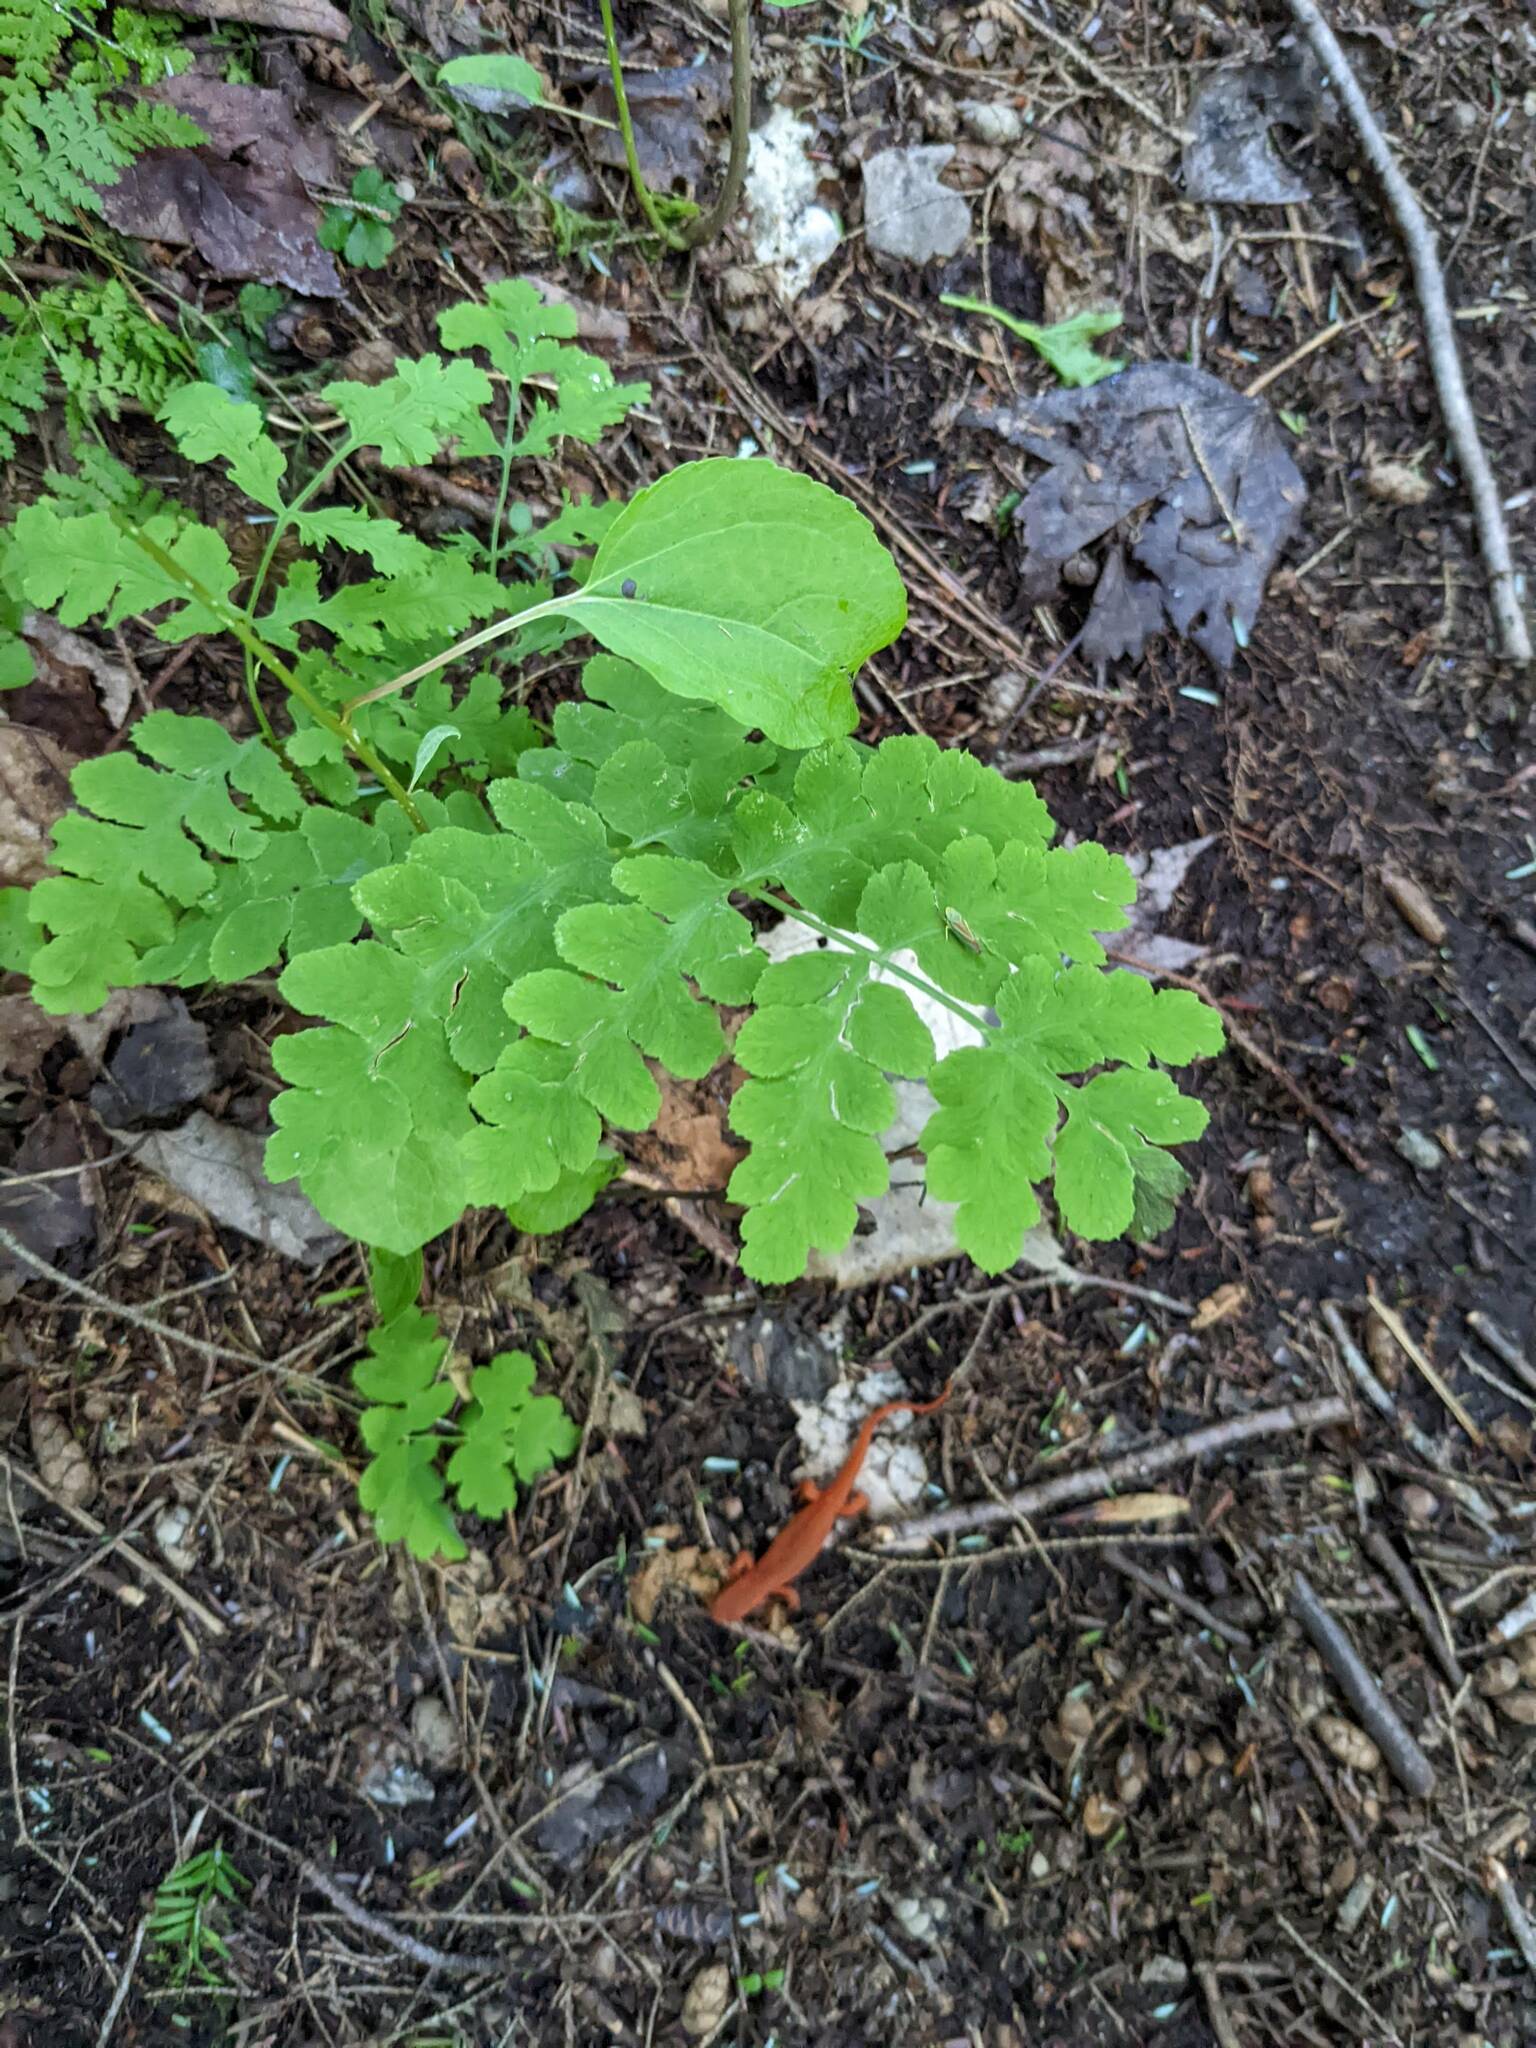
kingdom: Plantae
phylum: Tracheophyta
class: Polypodiopsida
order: Osmundales
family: Osmundaceae
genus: Claytosmunda
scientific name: Claytosmunda claytoniana
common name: Clayton's fern
